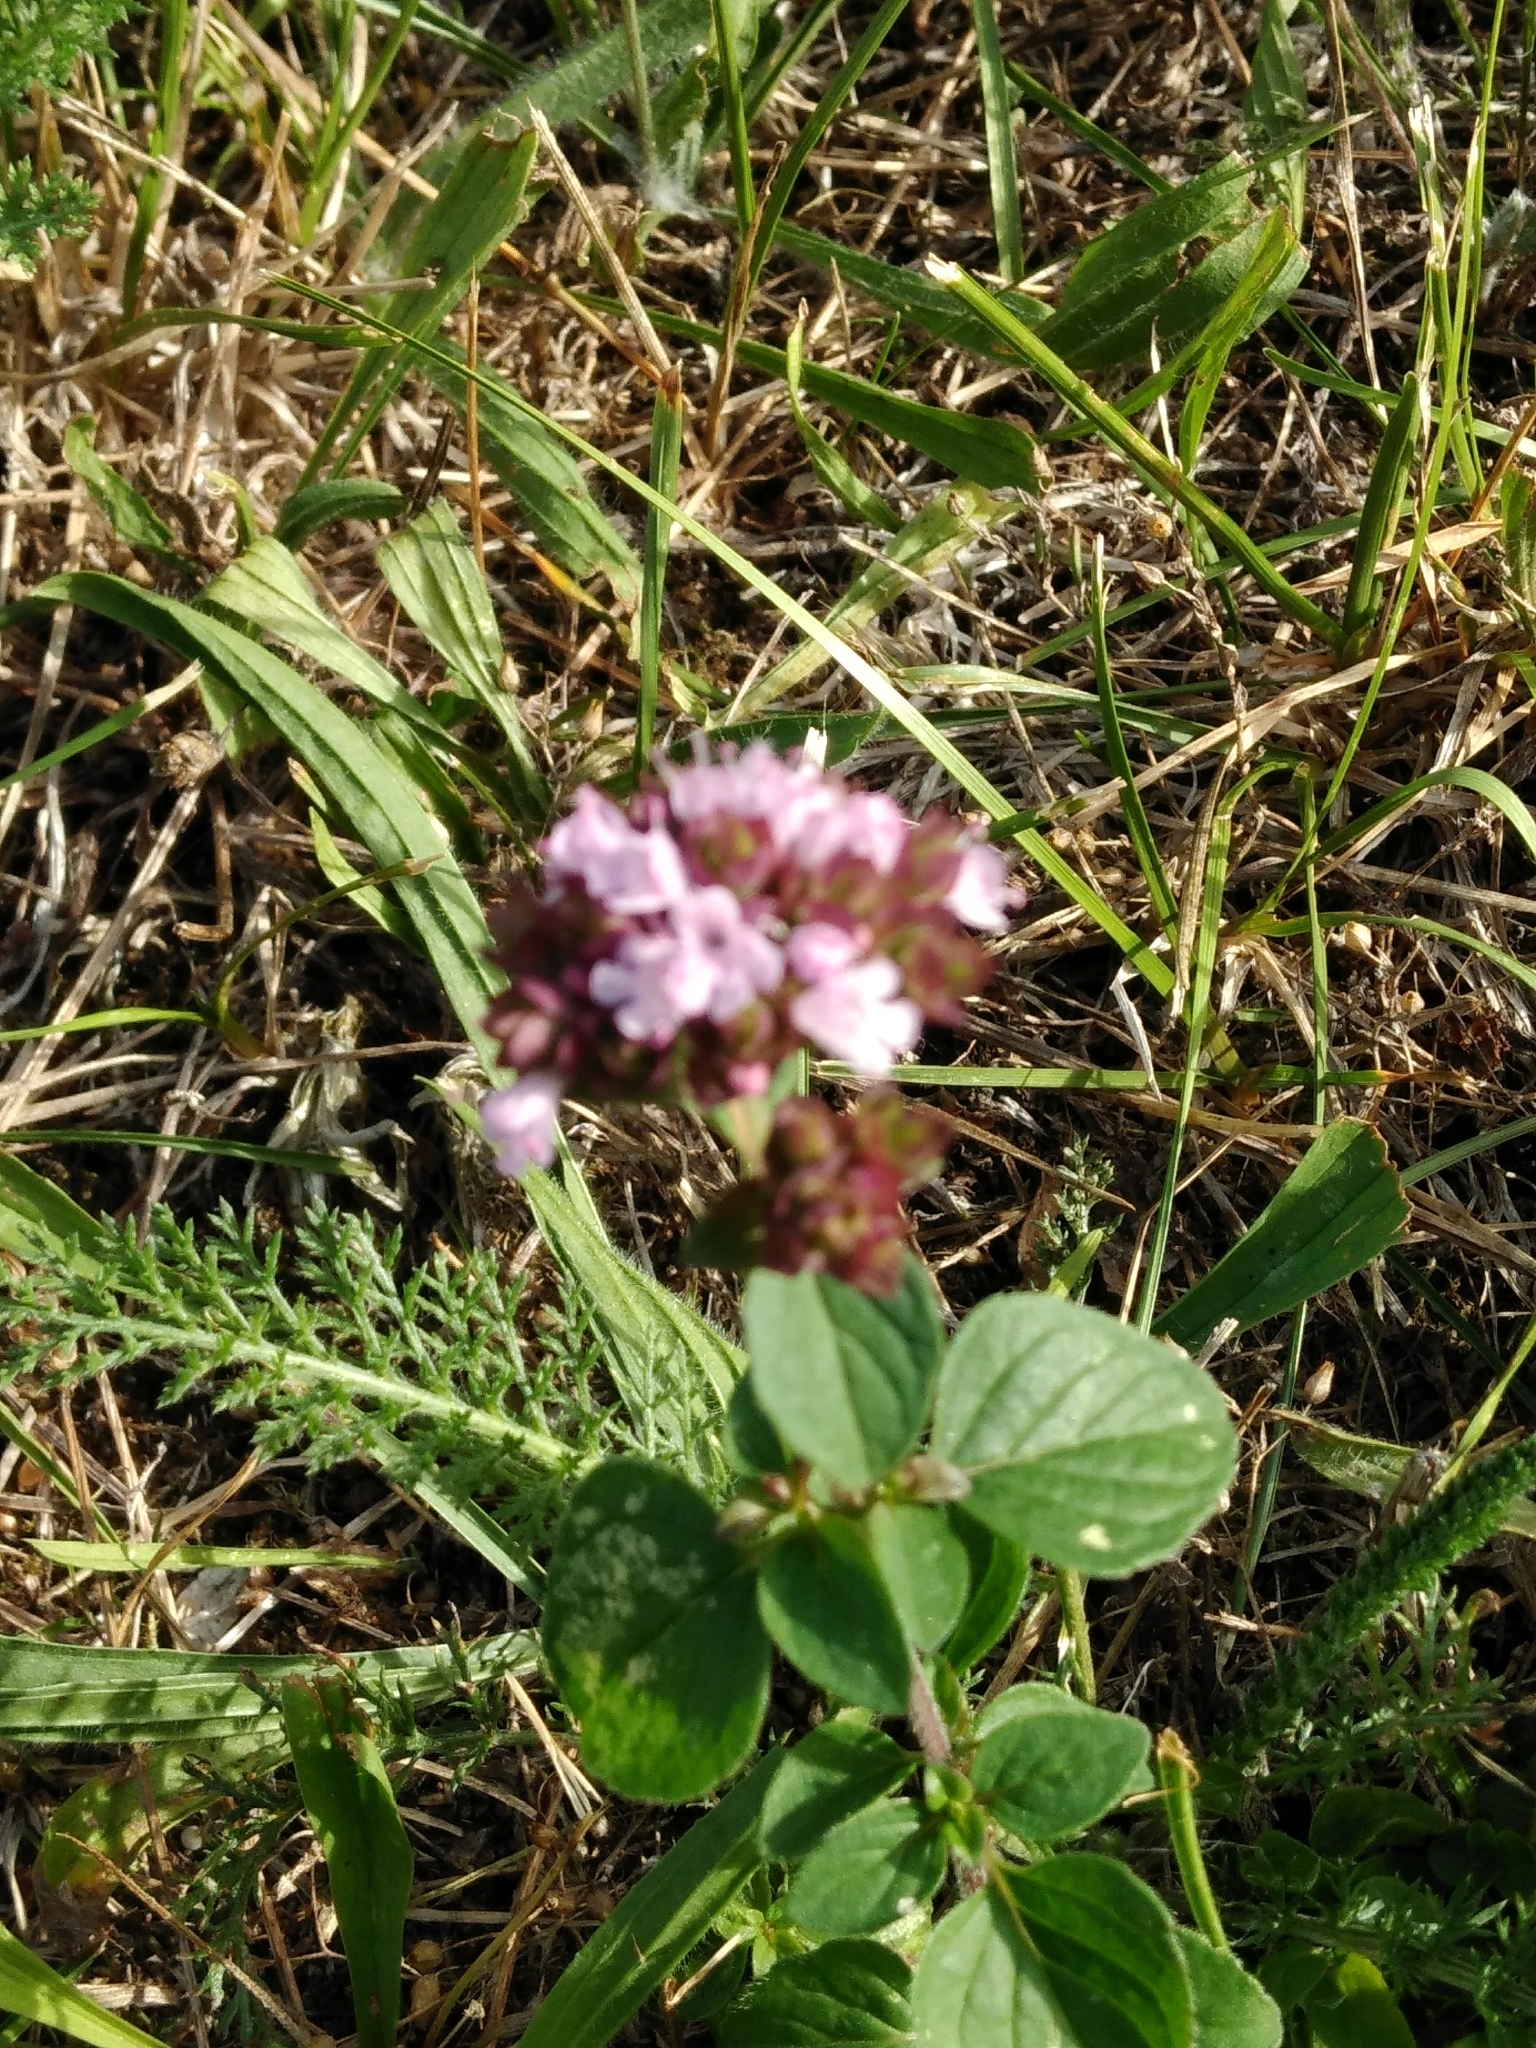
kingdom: Plantae
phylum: Tracheophyta
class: Magnoliopsida
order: Lamiales
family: Lamiaceae
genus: Origanum
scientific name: Origanum vulgare
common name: Wild marjoram
